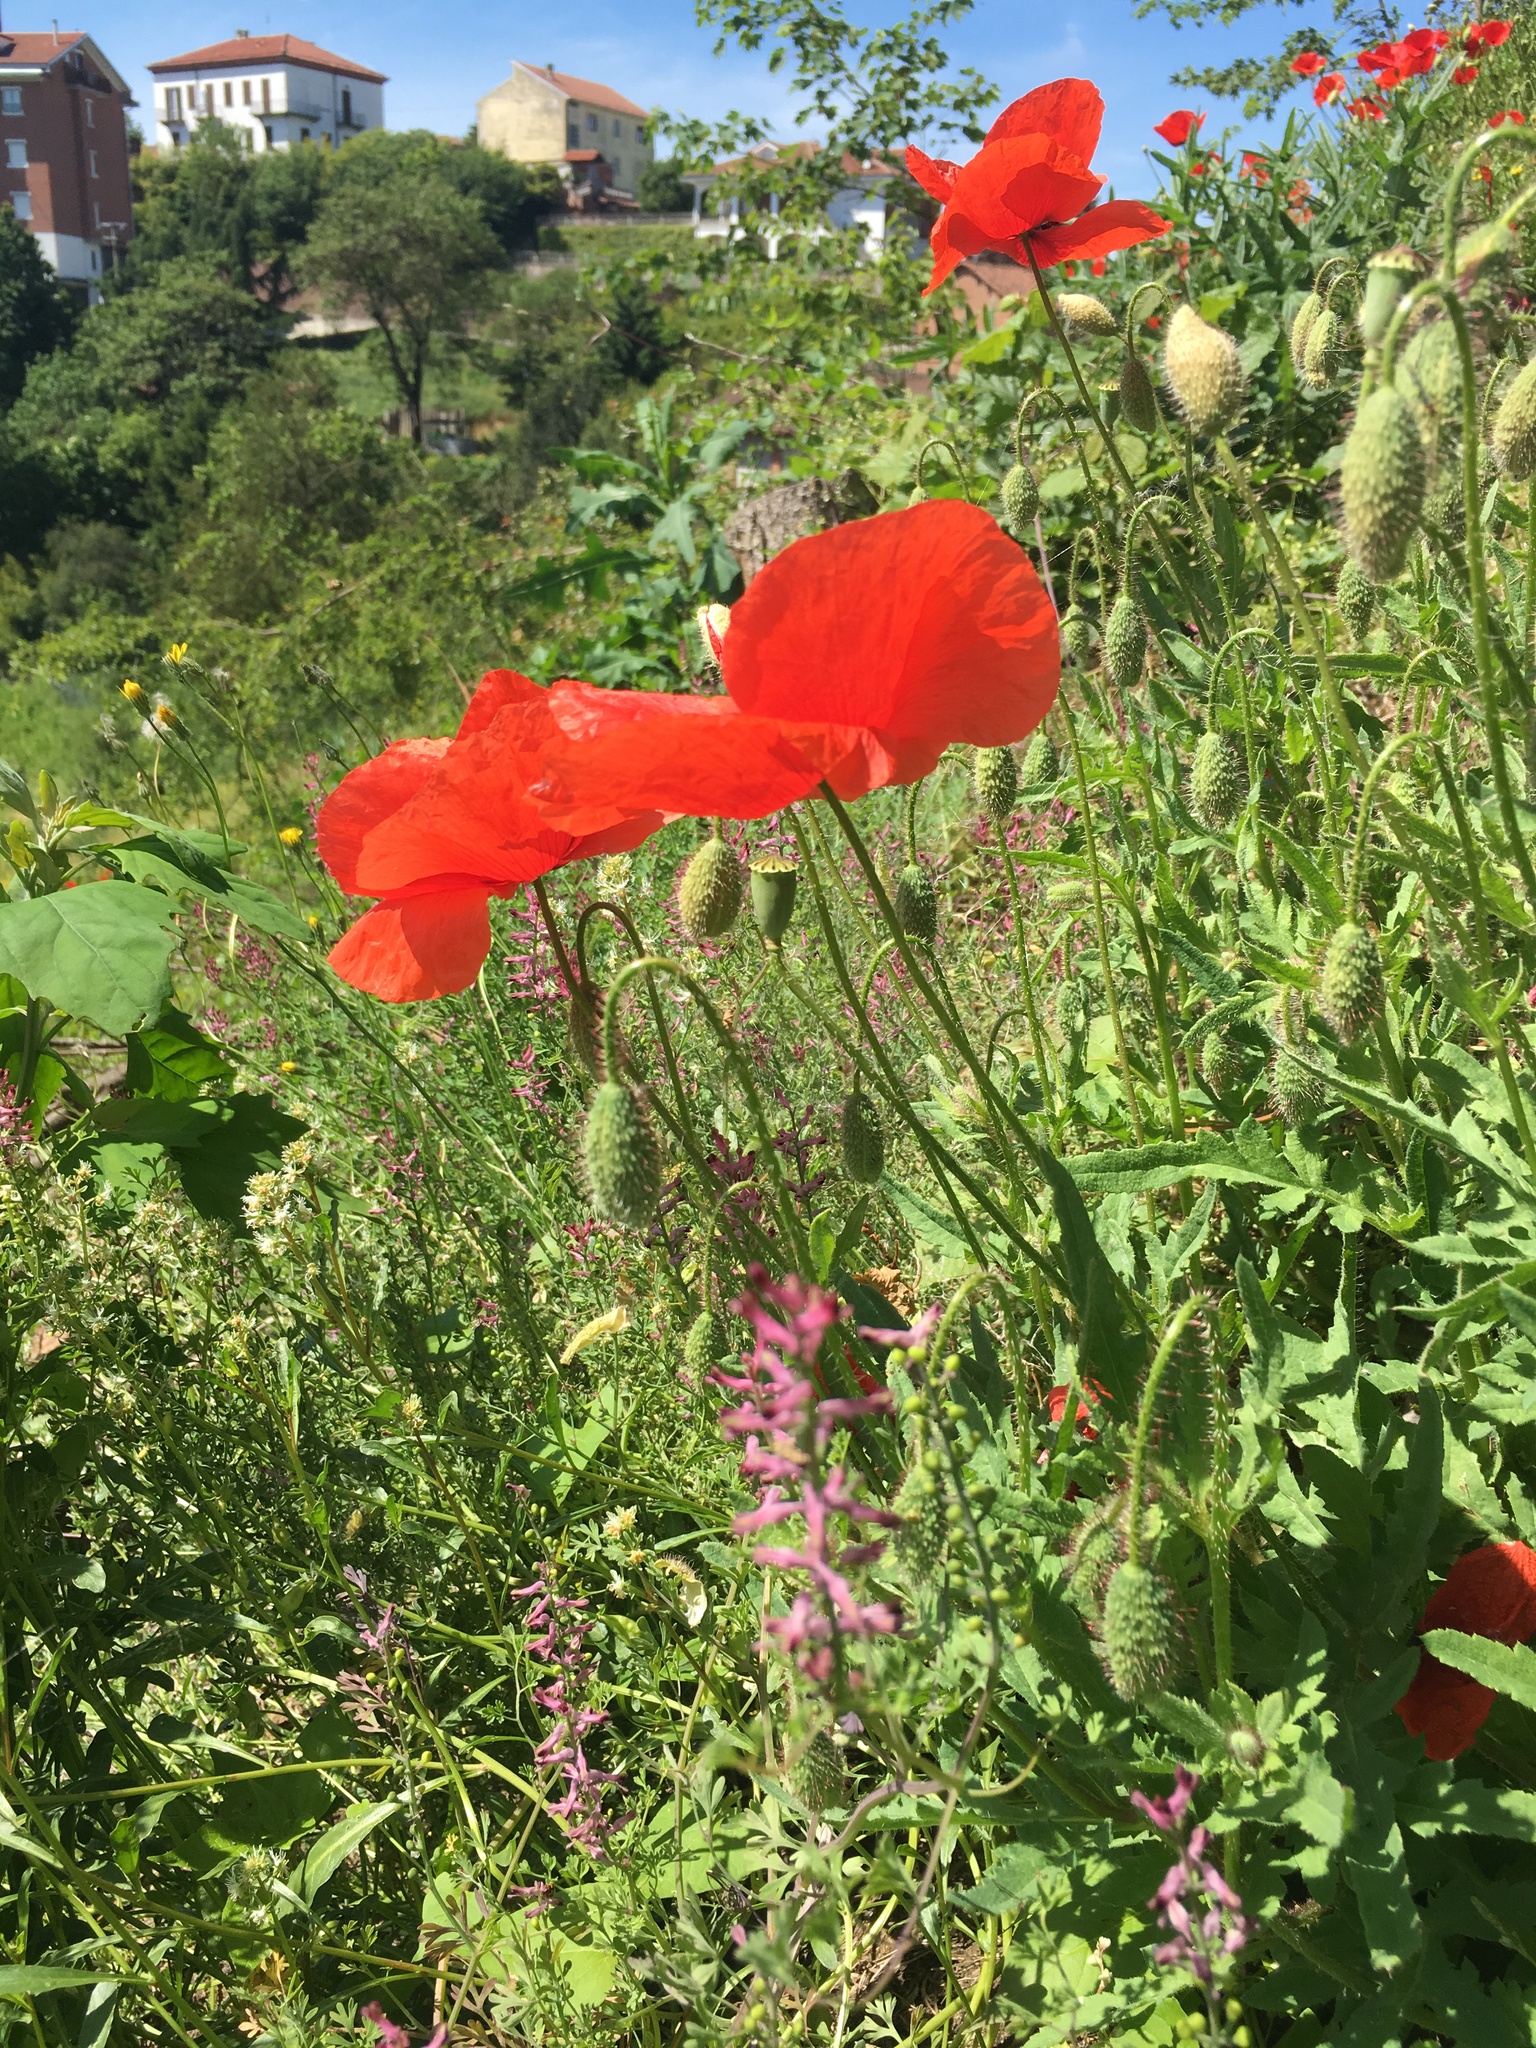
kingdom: Plantae
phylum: Tracheophyta
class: Magnoliopsida
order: Ranunculales
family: Papaveraceae
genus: Papaver
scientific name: Papaver rhoeas
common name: Corn poppy
